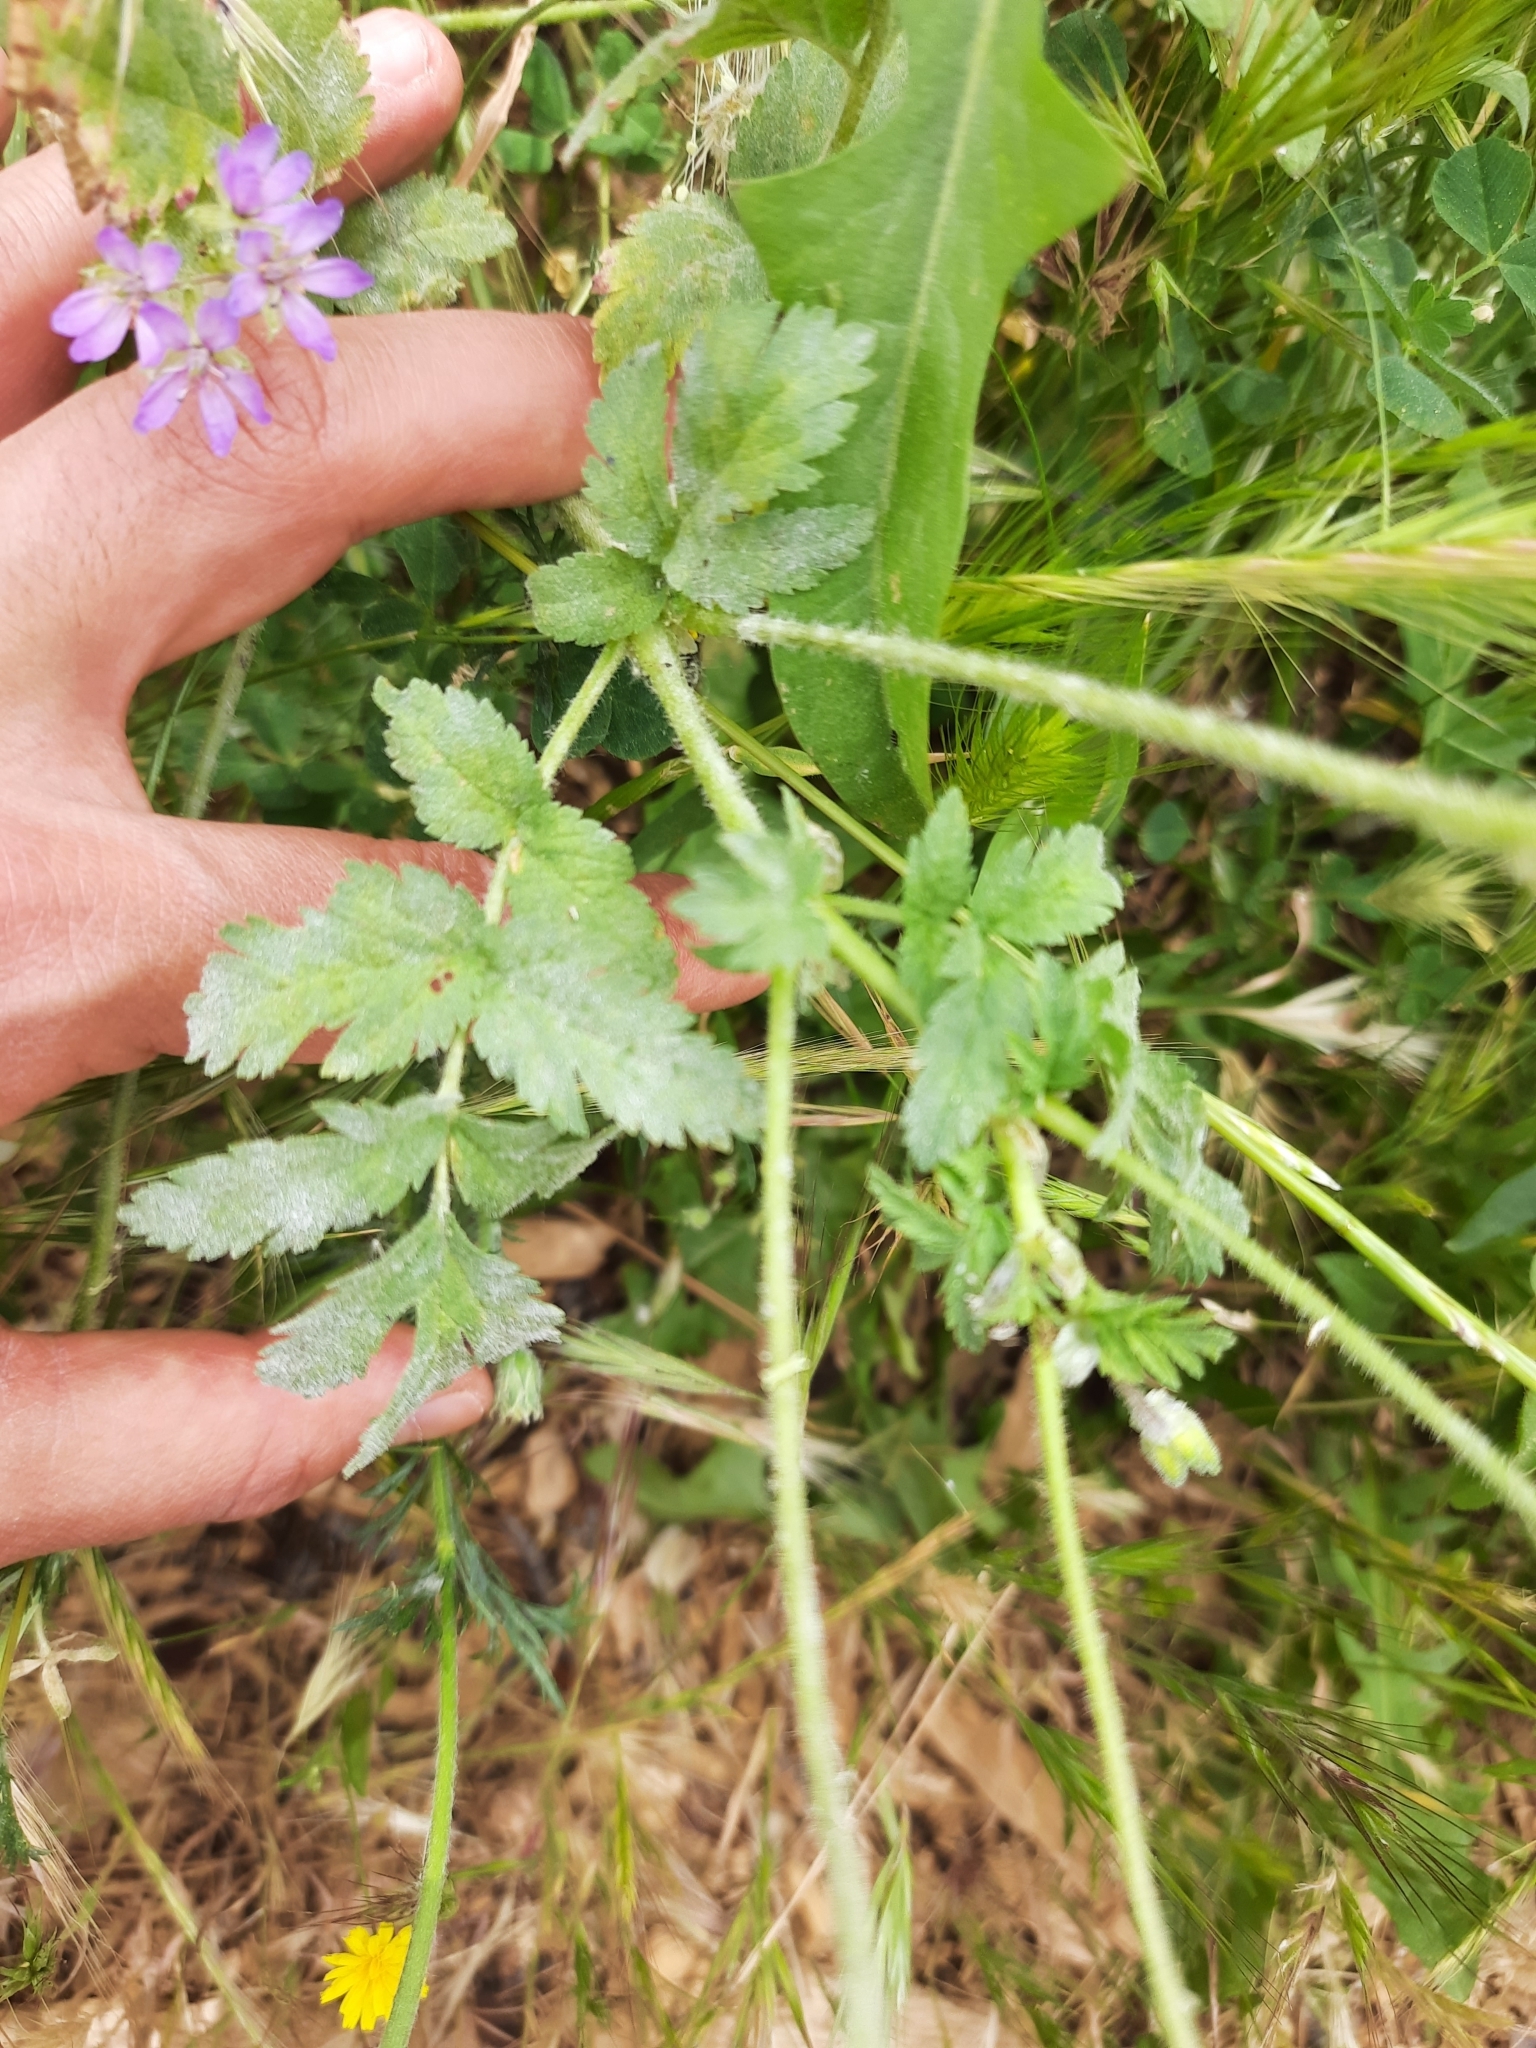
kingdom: Plantae
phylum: Tracheophyta
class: Magnoliopsida
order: Geraniales
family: Geraniaceae
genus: Erodium
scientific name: Erodium moschatum
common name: Musk stork's-bill
